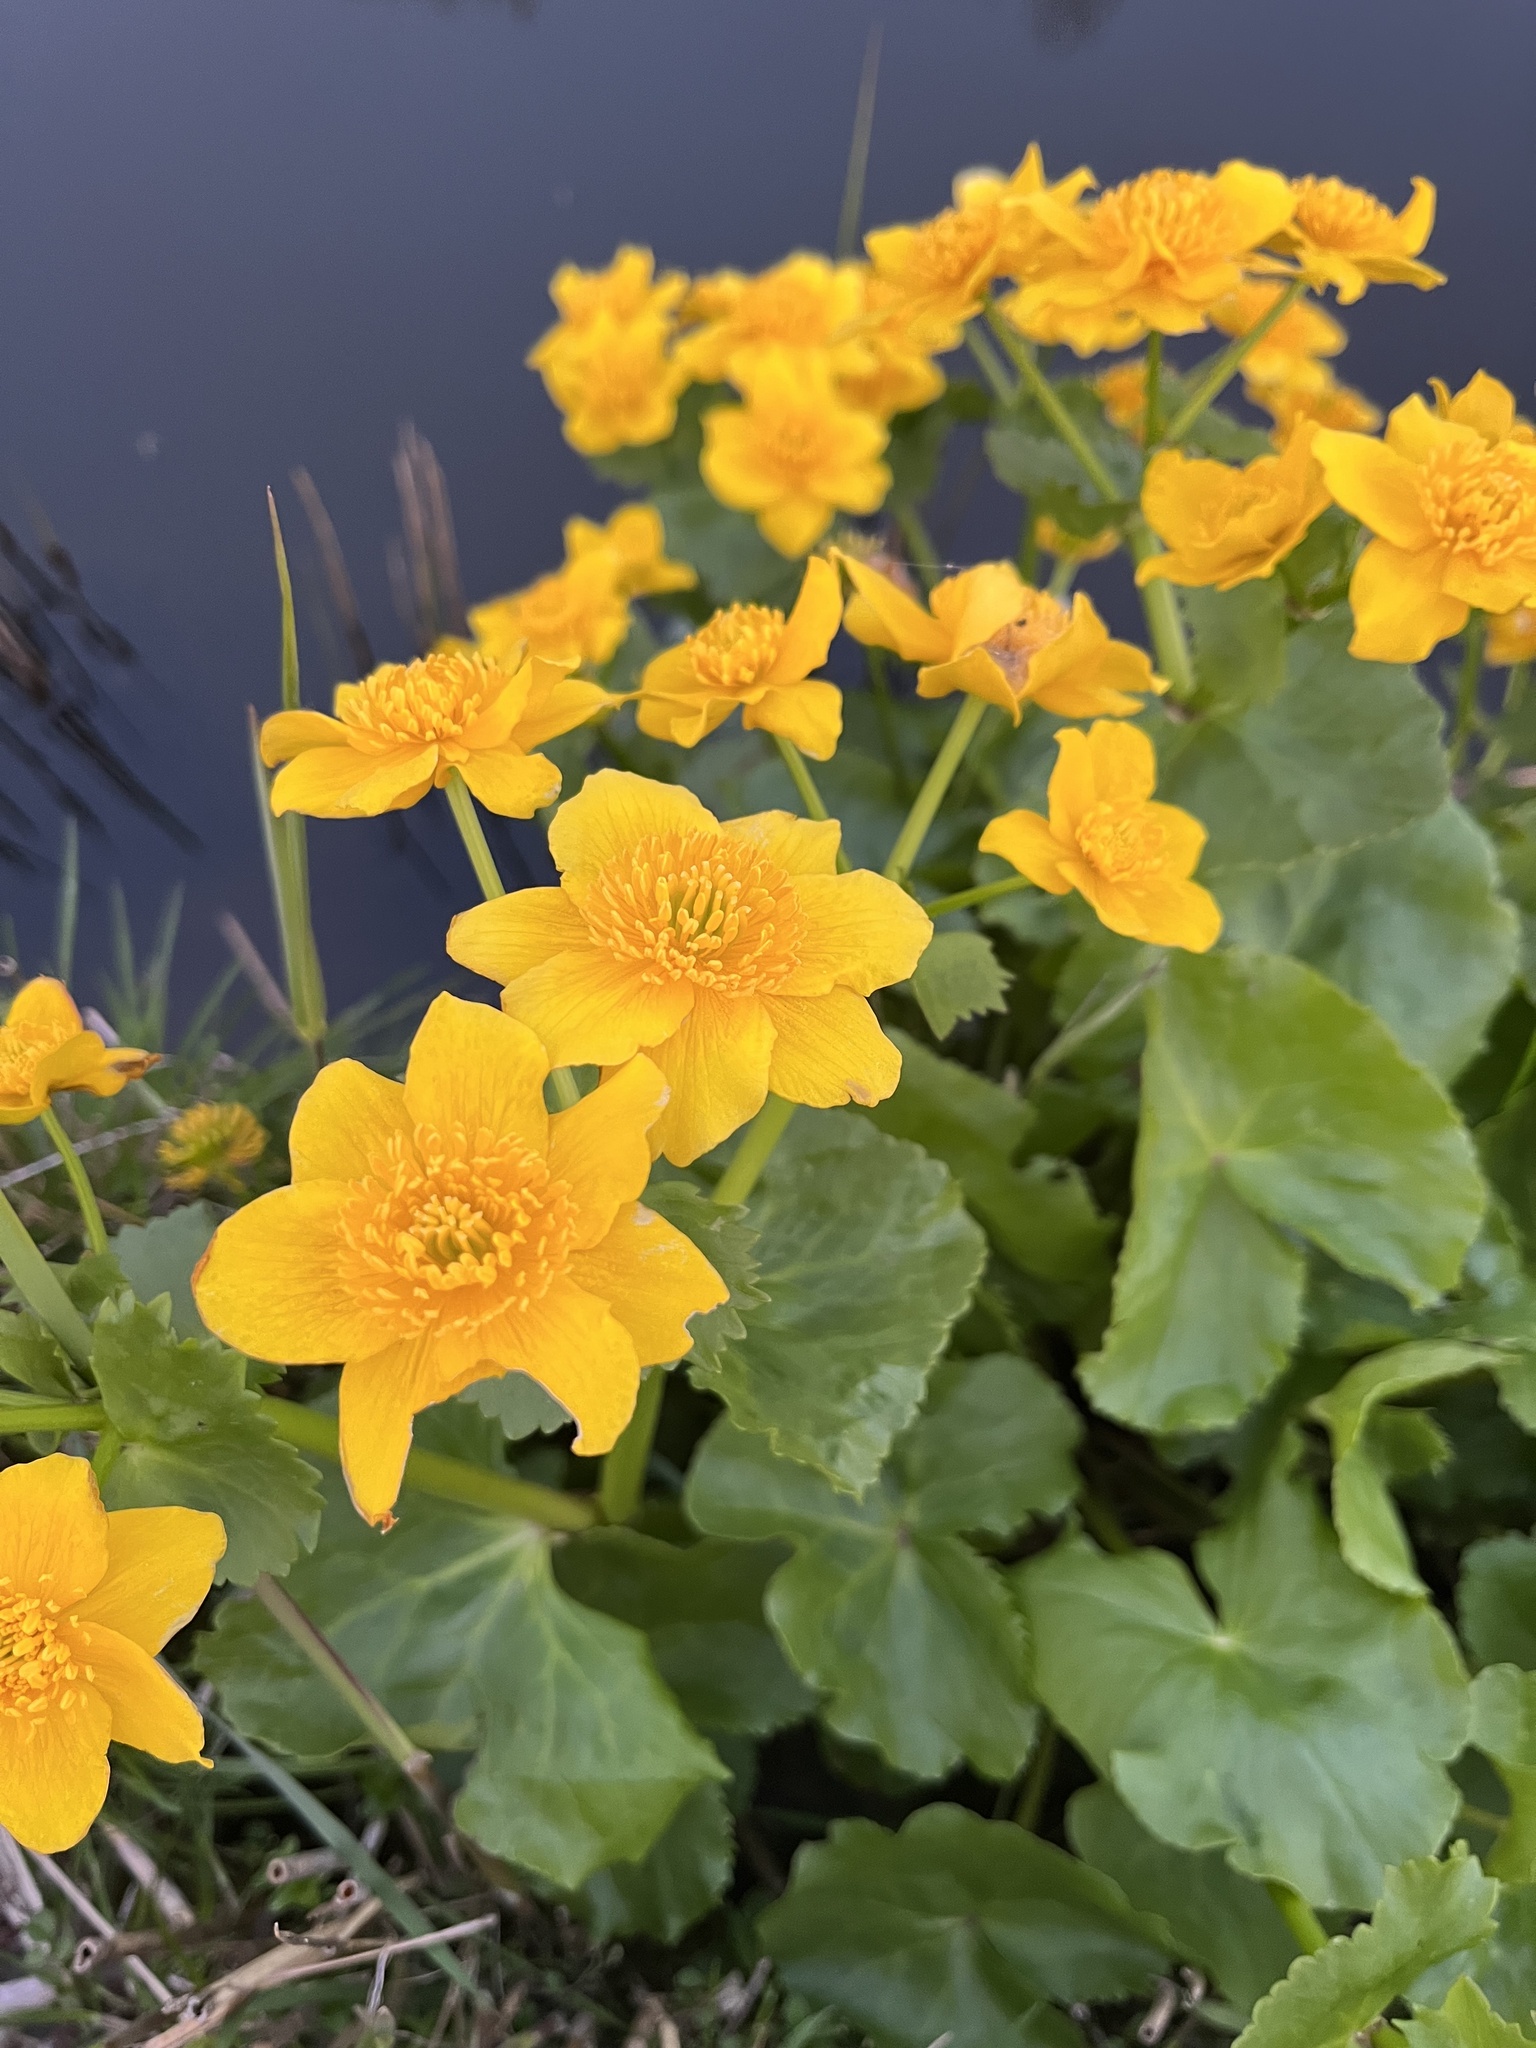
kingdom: Plantae
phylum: Tracheophyta
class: Magnoliopsida
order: Ranunculales
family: Ranunculaceae
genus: Caltha
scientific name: Caltha palustris
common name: Marsh marigold
